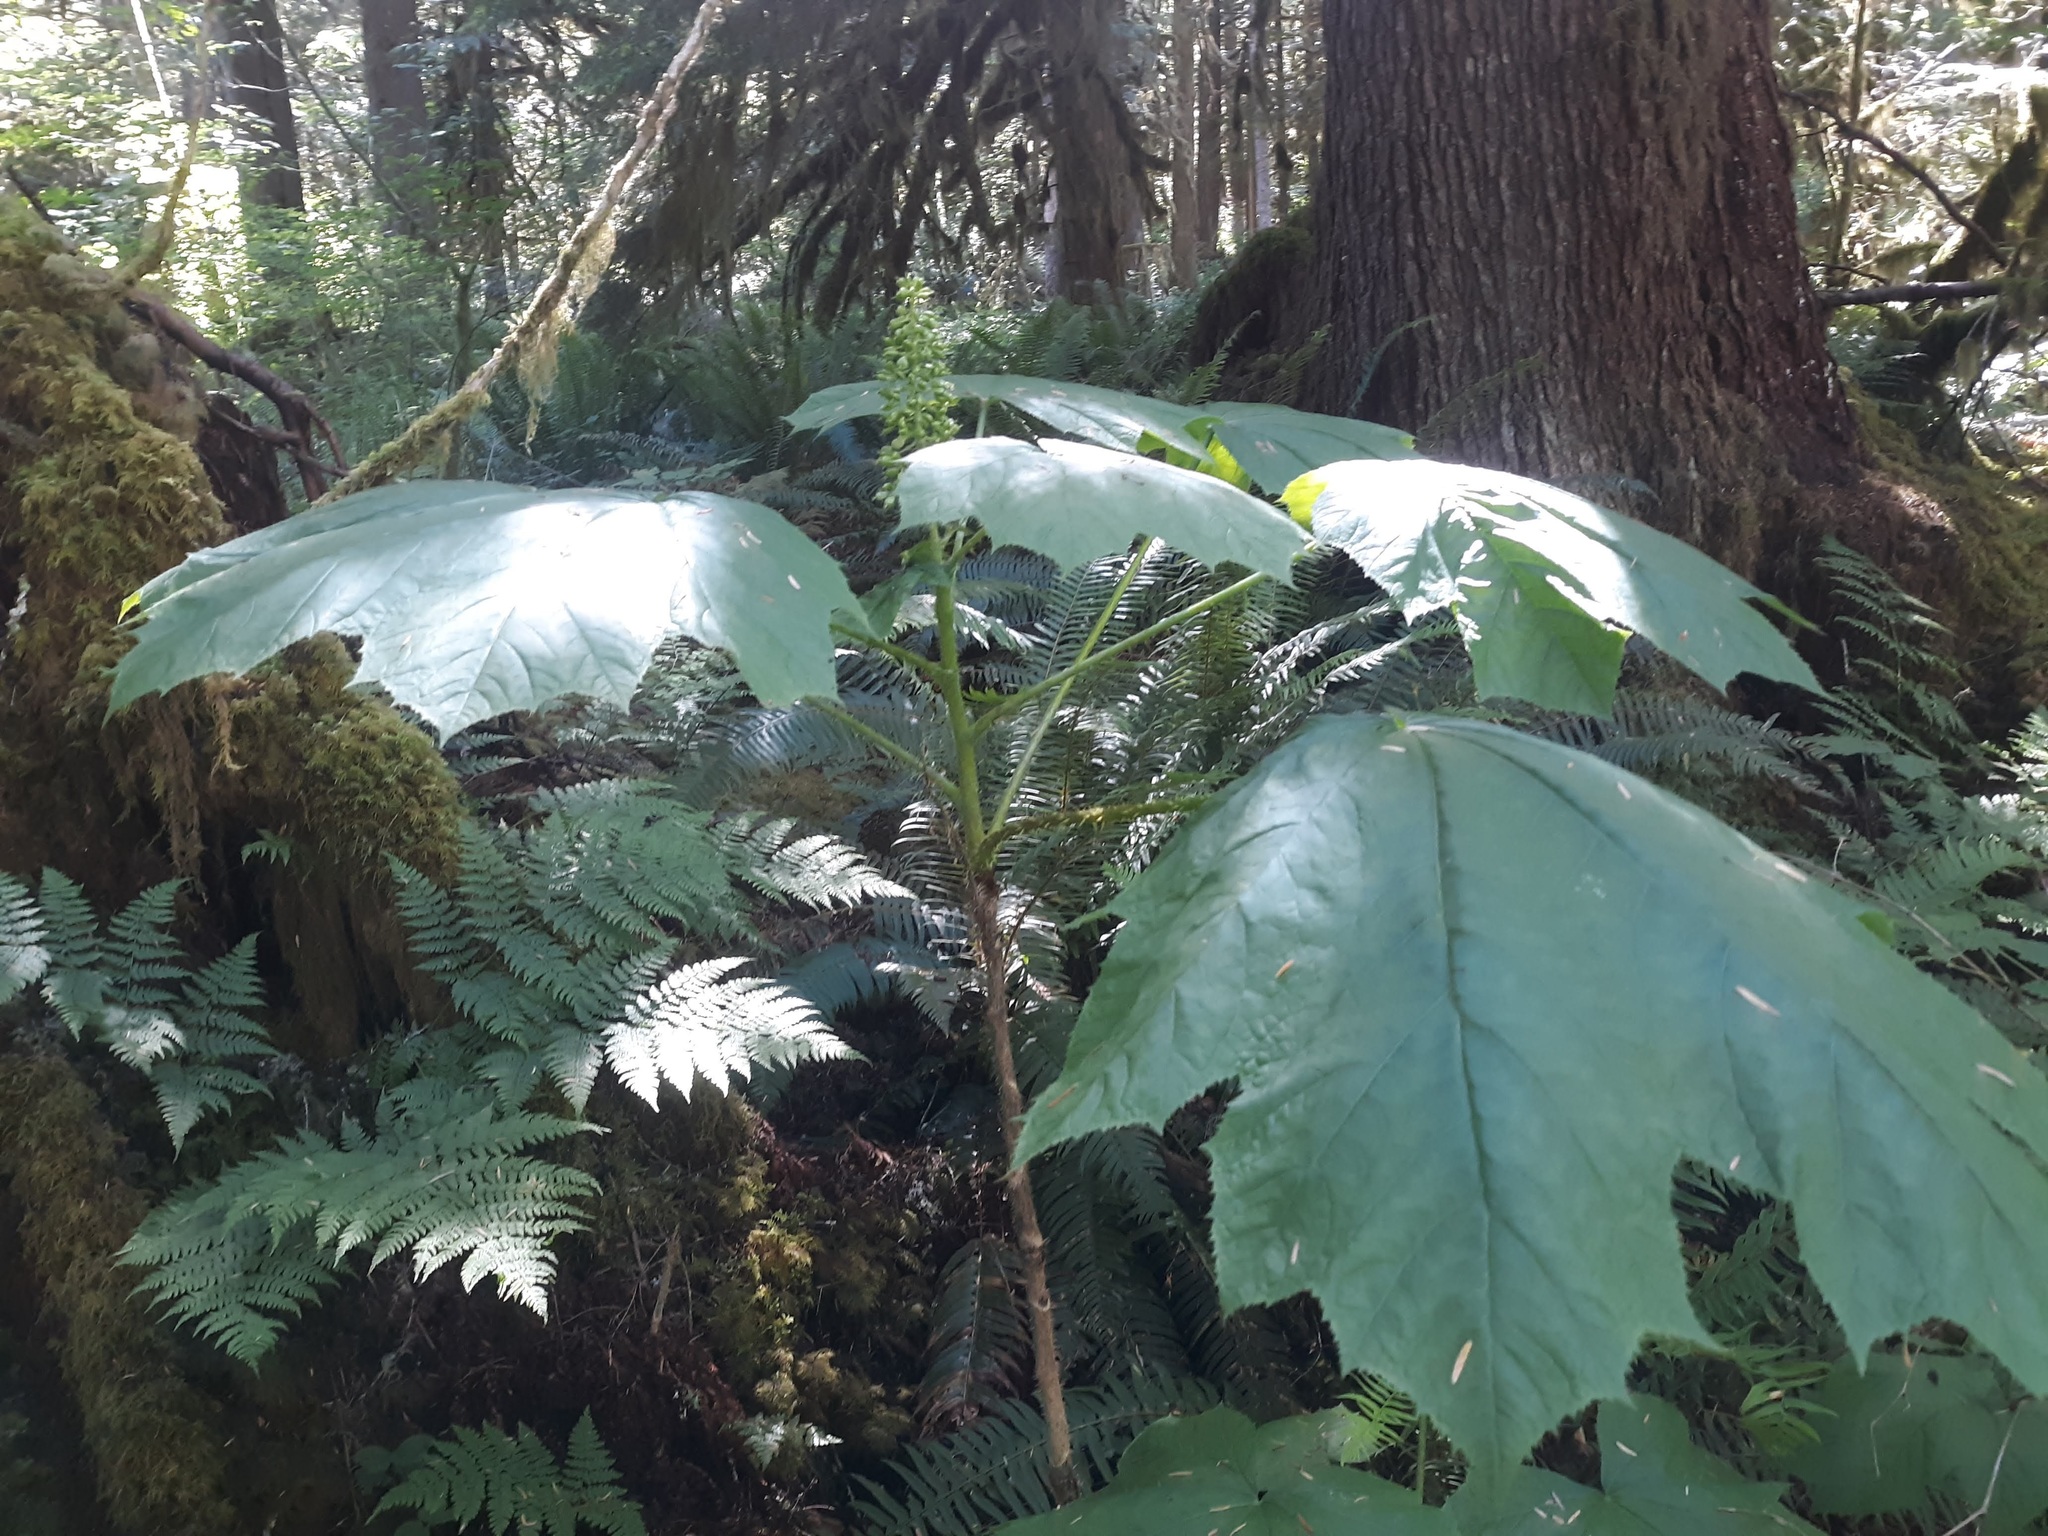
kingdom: Plantae
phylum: Tracheophyta
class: Magnoliopsida
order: Apiales
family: Araliaceae
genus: Oplopanax
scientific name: Oplopanax horridus
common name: Devil's walking-stick
